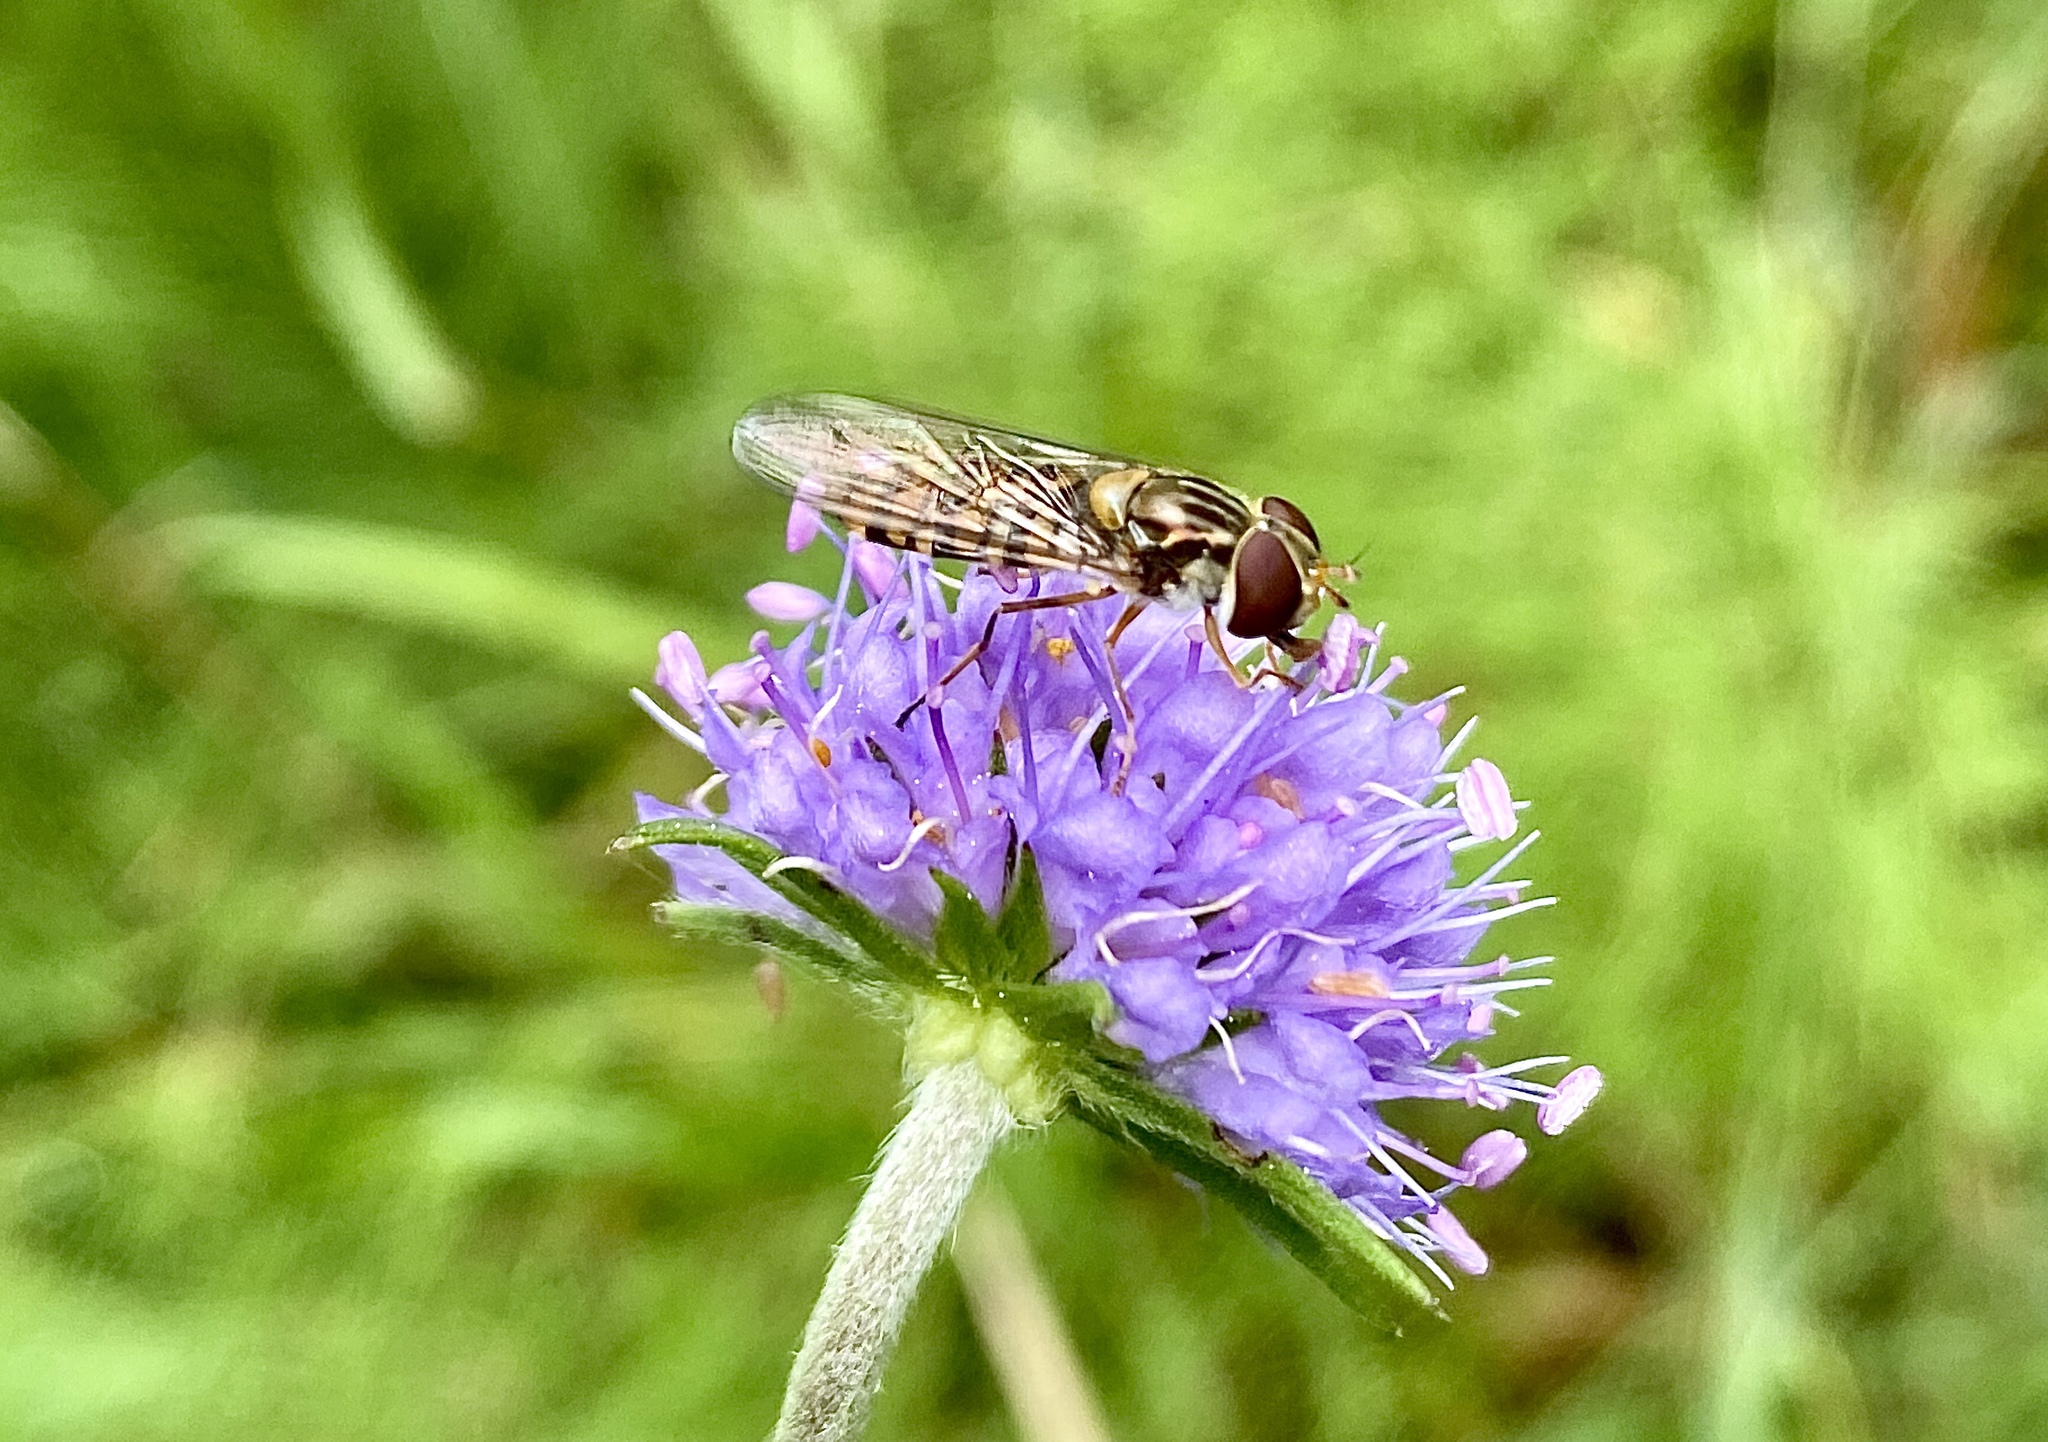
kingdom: Animalia
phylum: Arthropoda
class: Insecta
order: Diptera
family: Syrphidae
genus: Episyrphus
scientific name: Episyrphus balteatus
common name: Marmalade hoverfly
